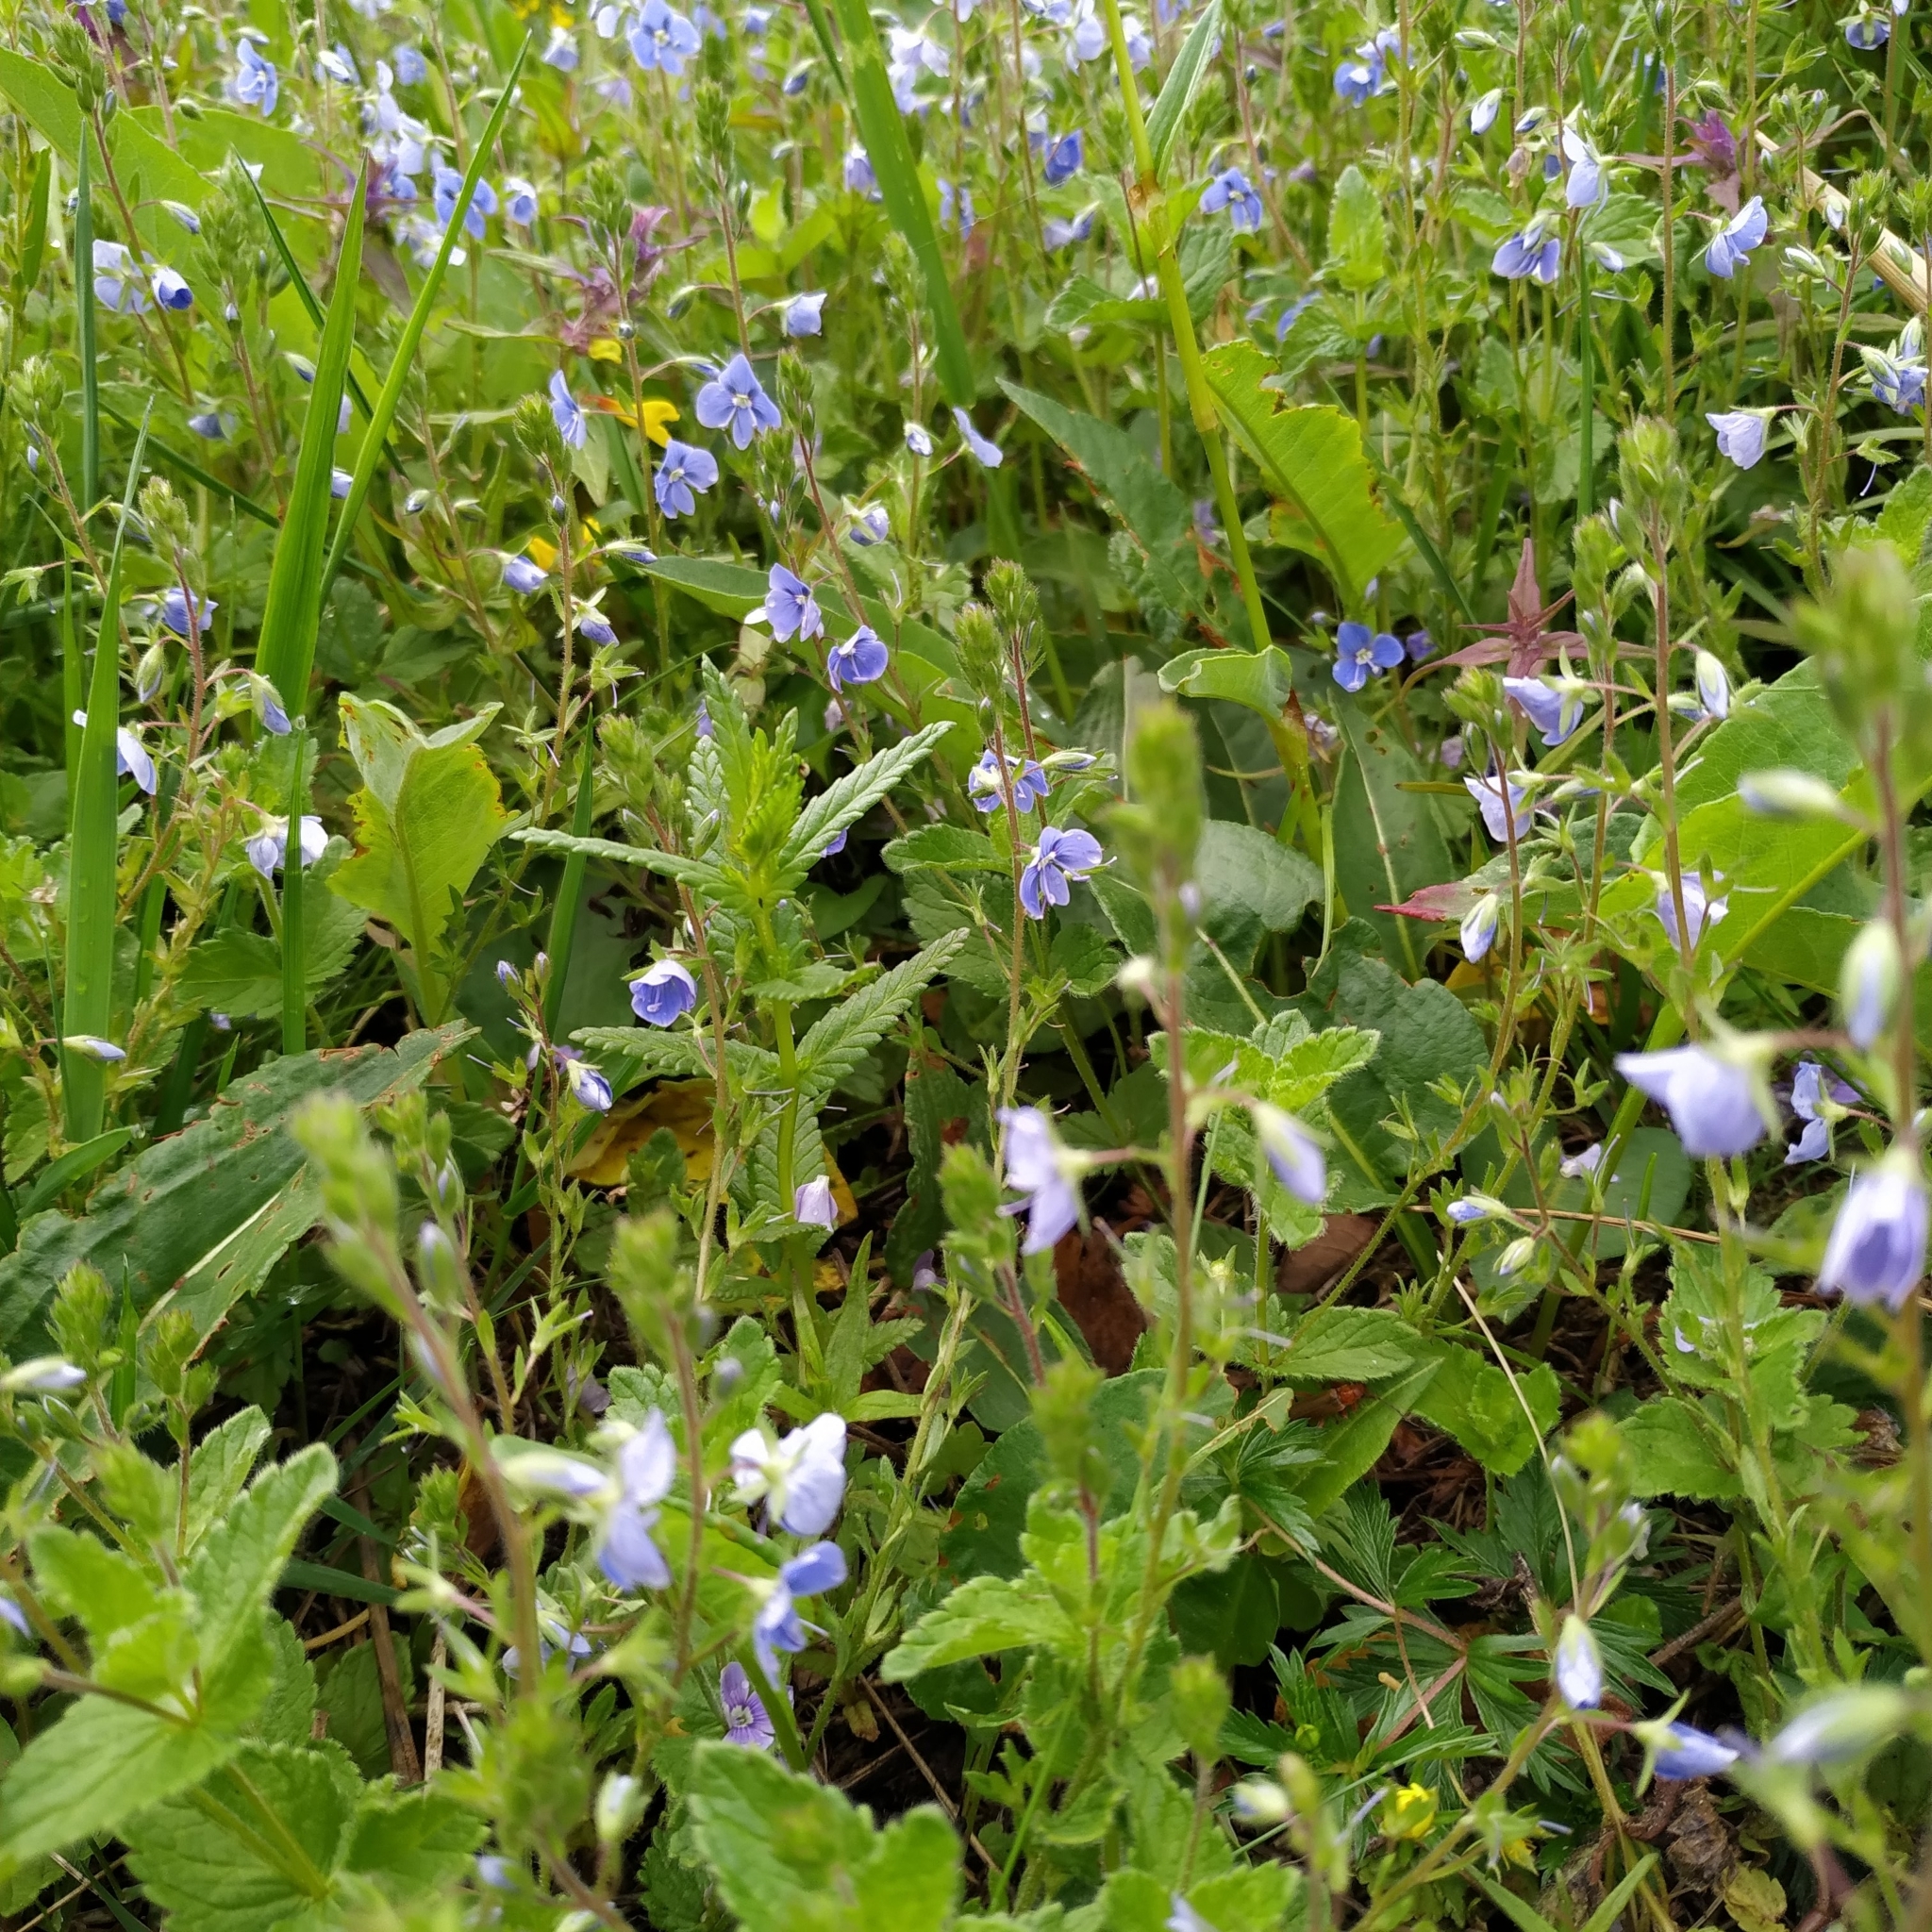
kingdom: Plantae
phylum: Tracheophyta
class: Magnoliopsida
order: Lamiales
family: Plantaginaceae
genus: Veronica
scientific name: Veronica chamaedrys
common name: Germander speedwell
